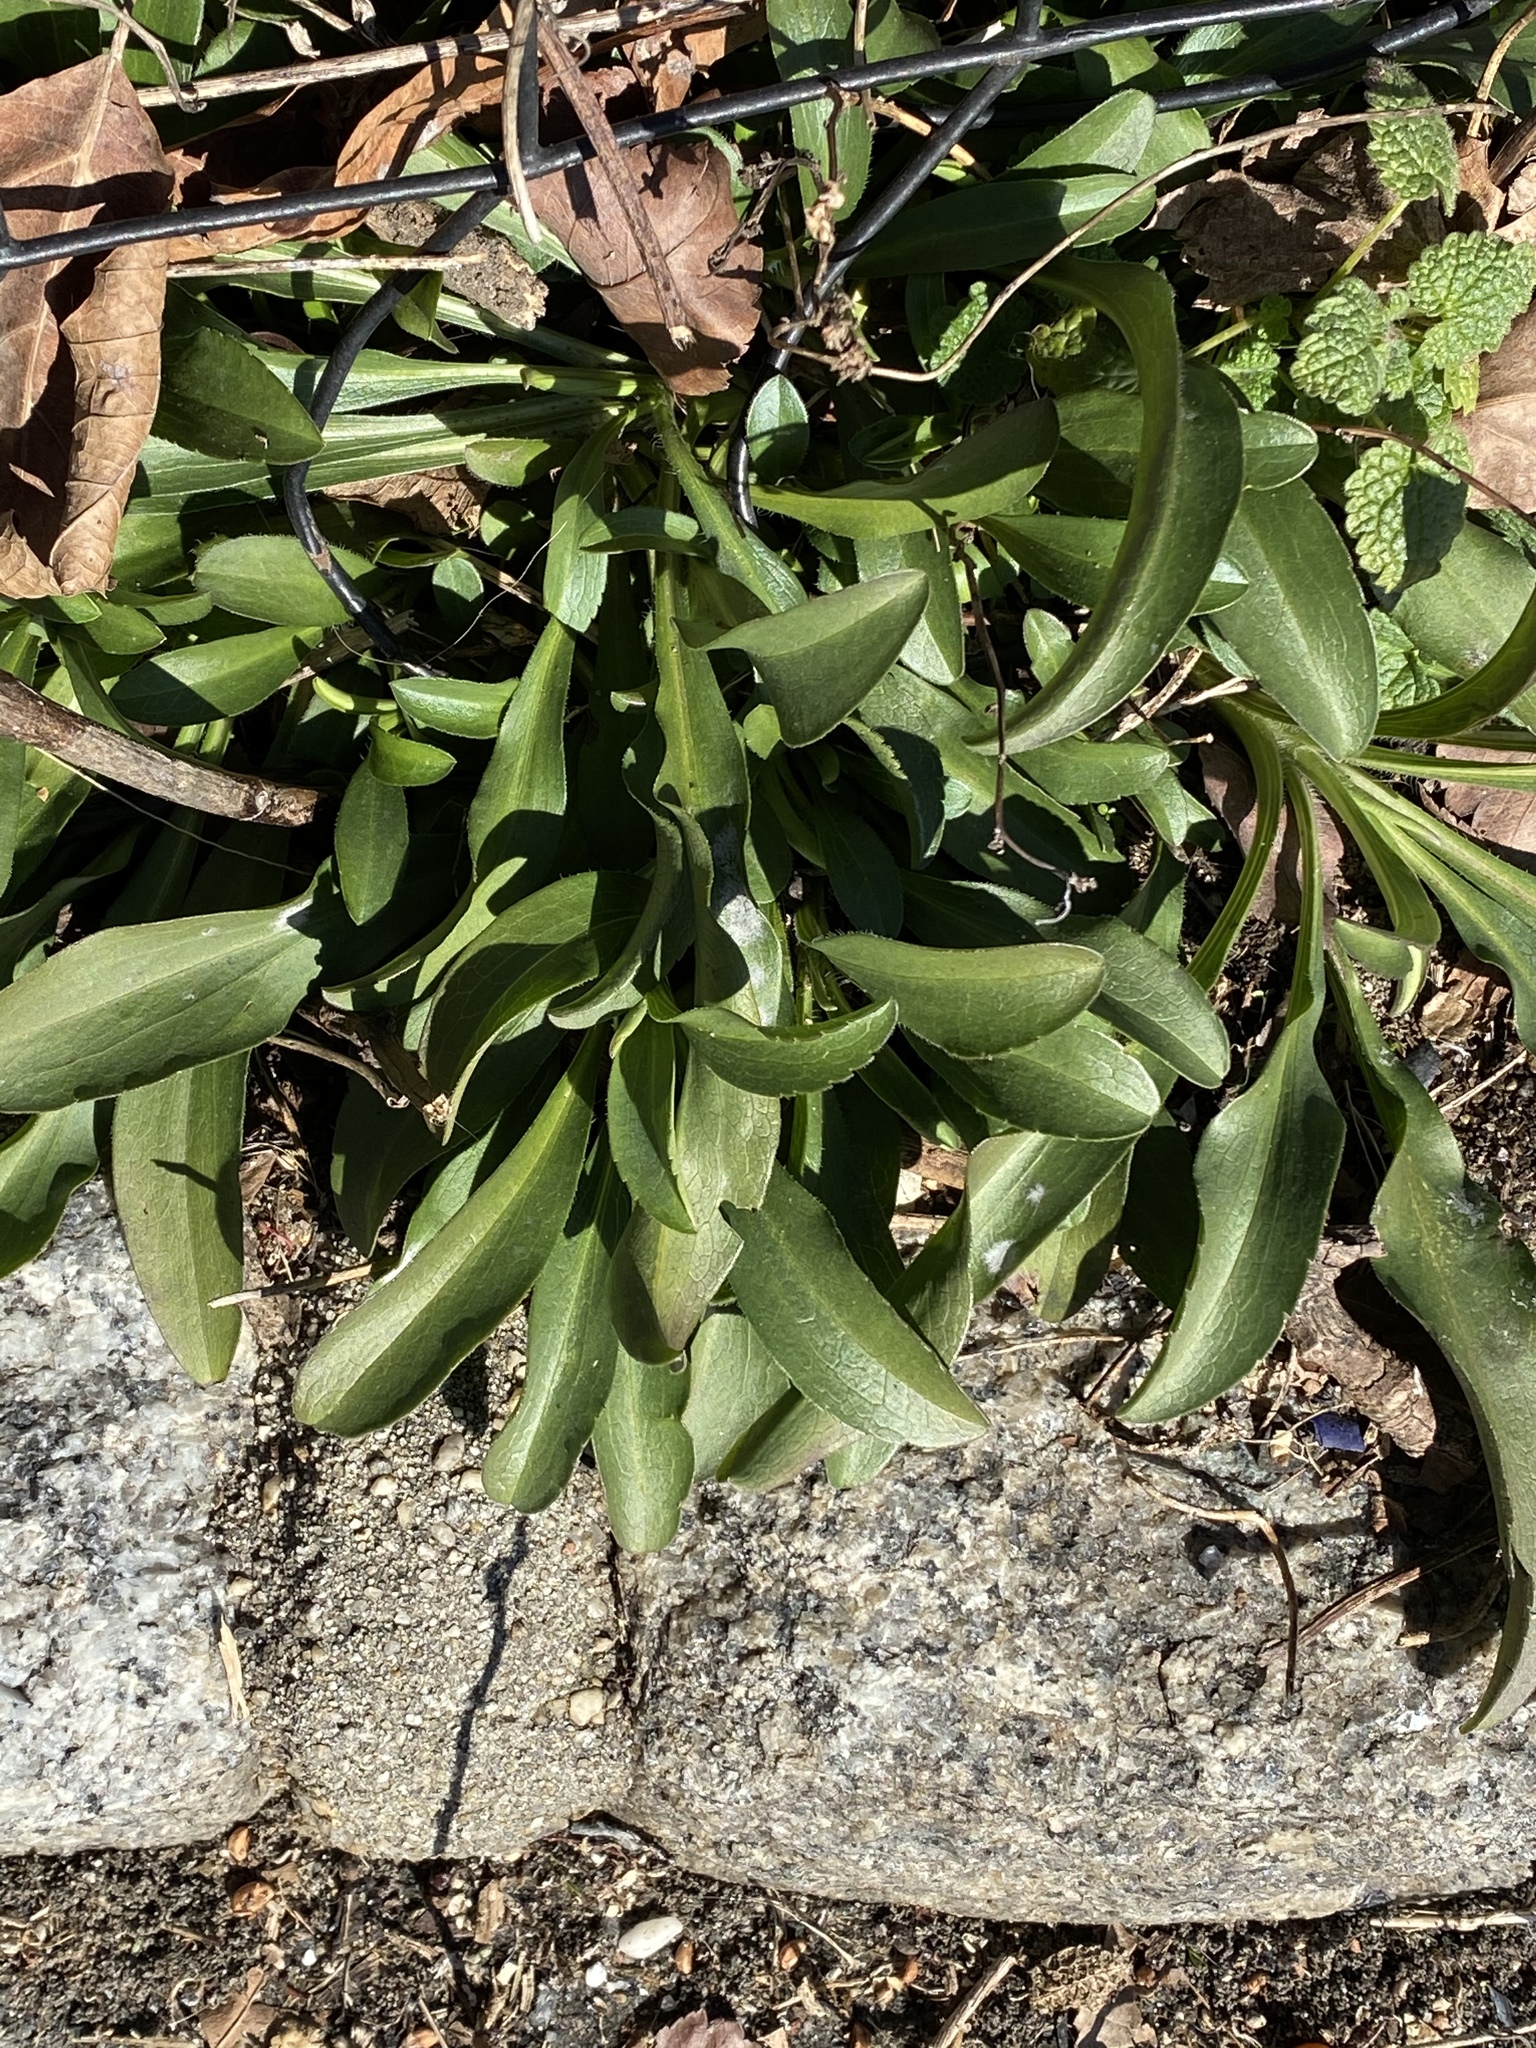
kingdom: Plantae
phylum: Tracheophyta
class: Magnoliopsida
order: Asterales
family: Asteraceae
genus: Solidago
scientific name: Solidago sempervirens
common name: Salt-marsh goldenrod
